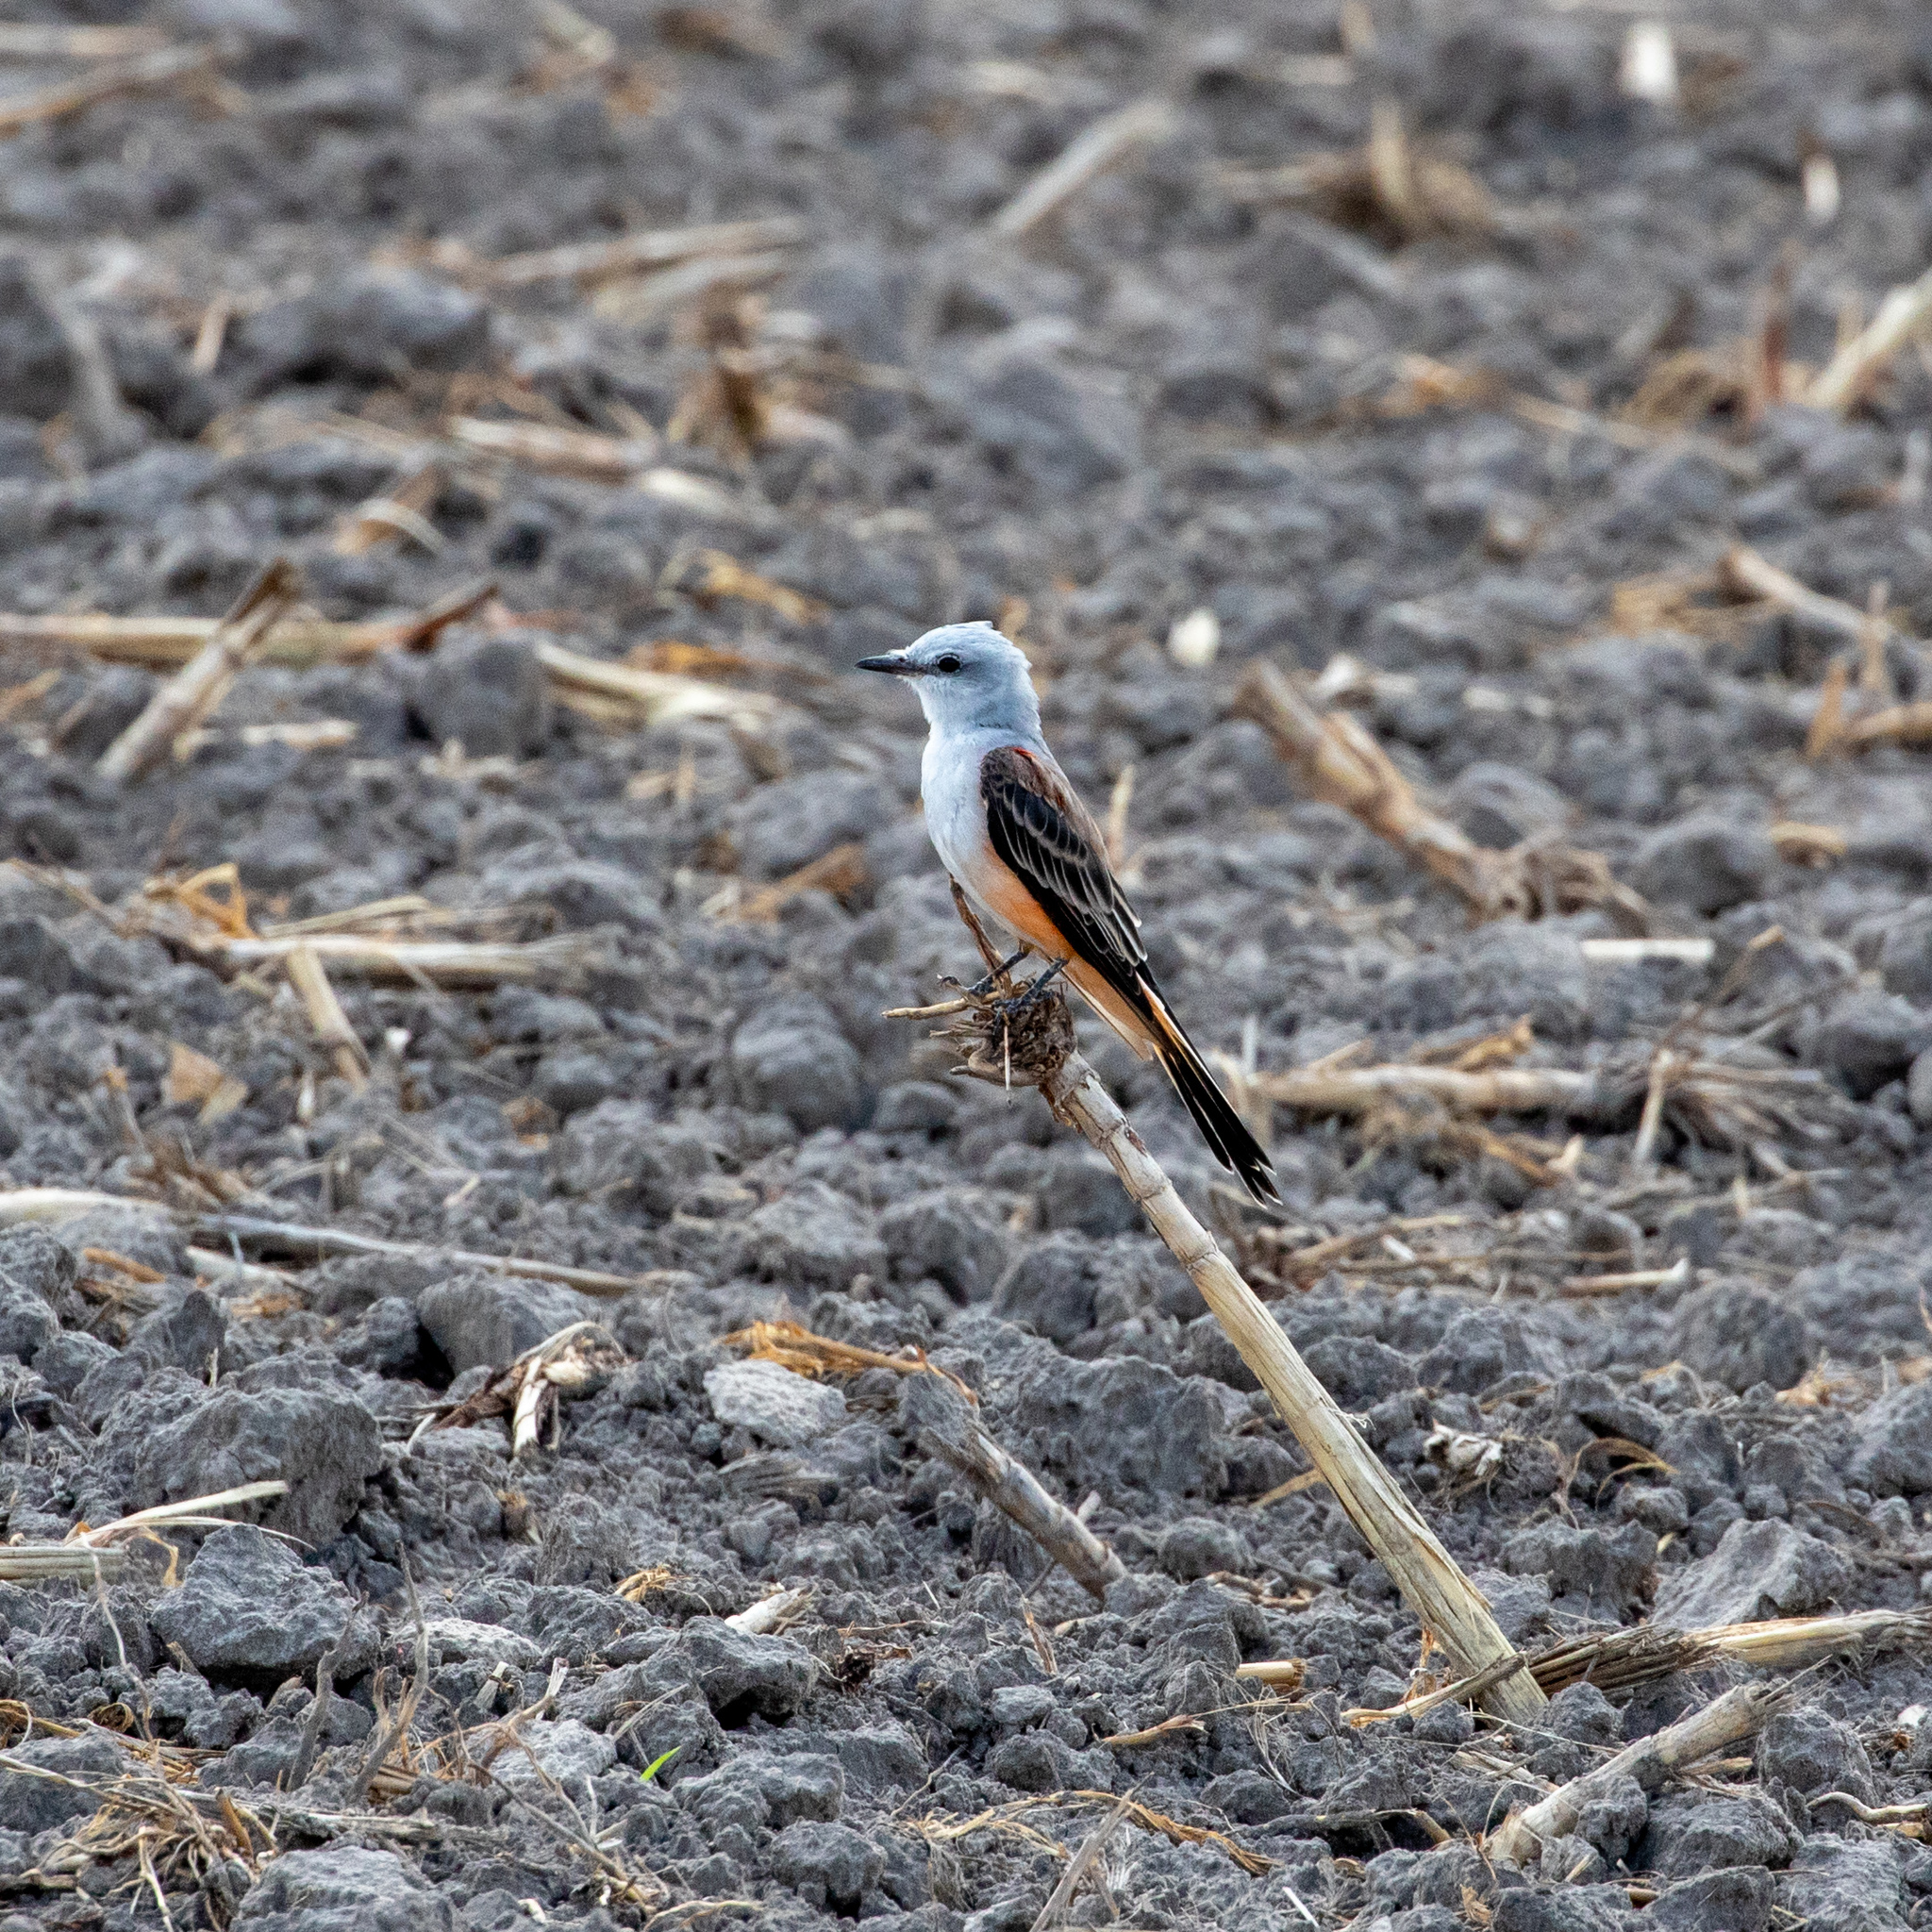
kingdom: Animalia
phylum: Chordata
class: Aves
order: Passeriformes
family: Tyrannidae
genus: Tyrannus
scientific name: Tyrannus forficatus
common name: Scissor-tailed flycatcher
